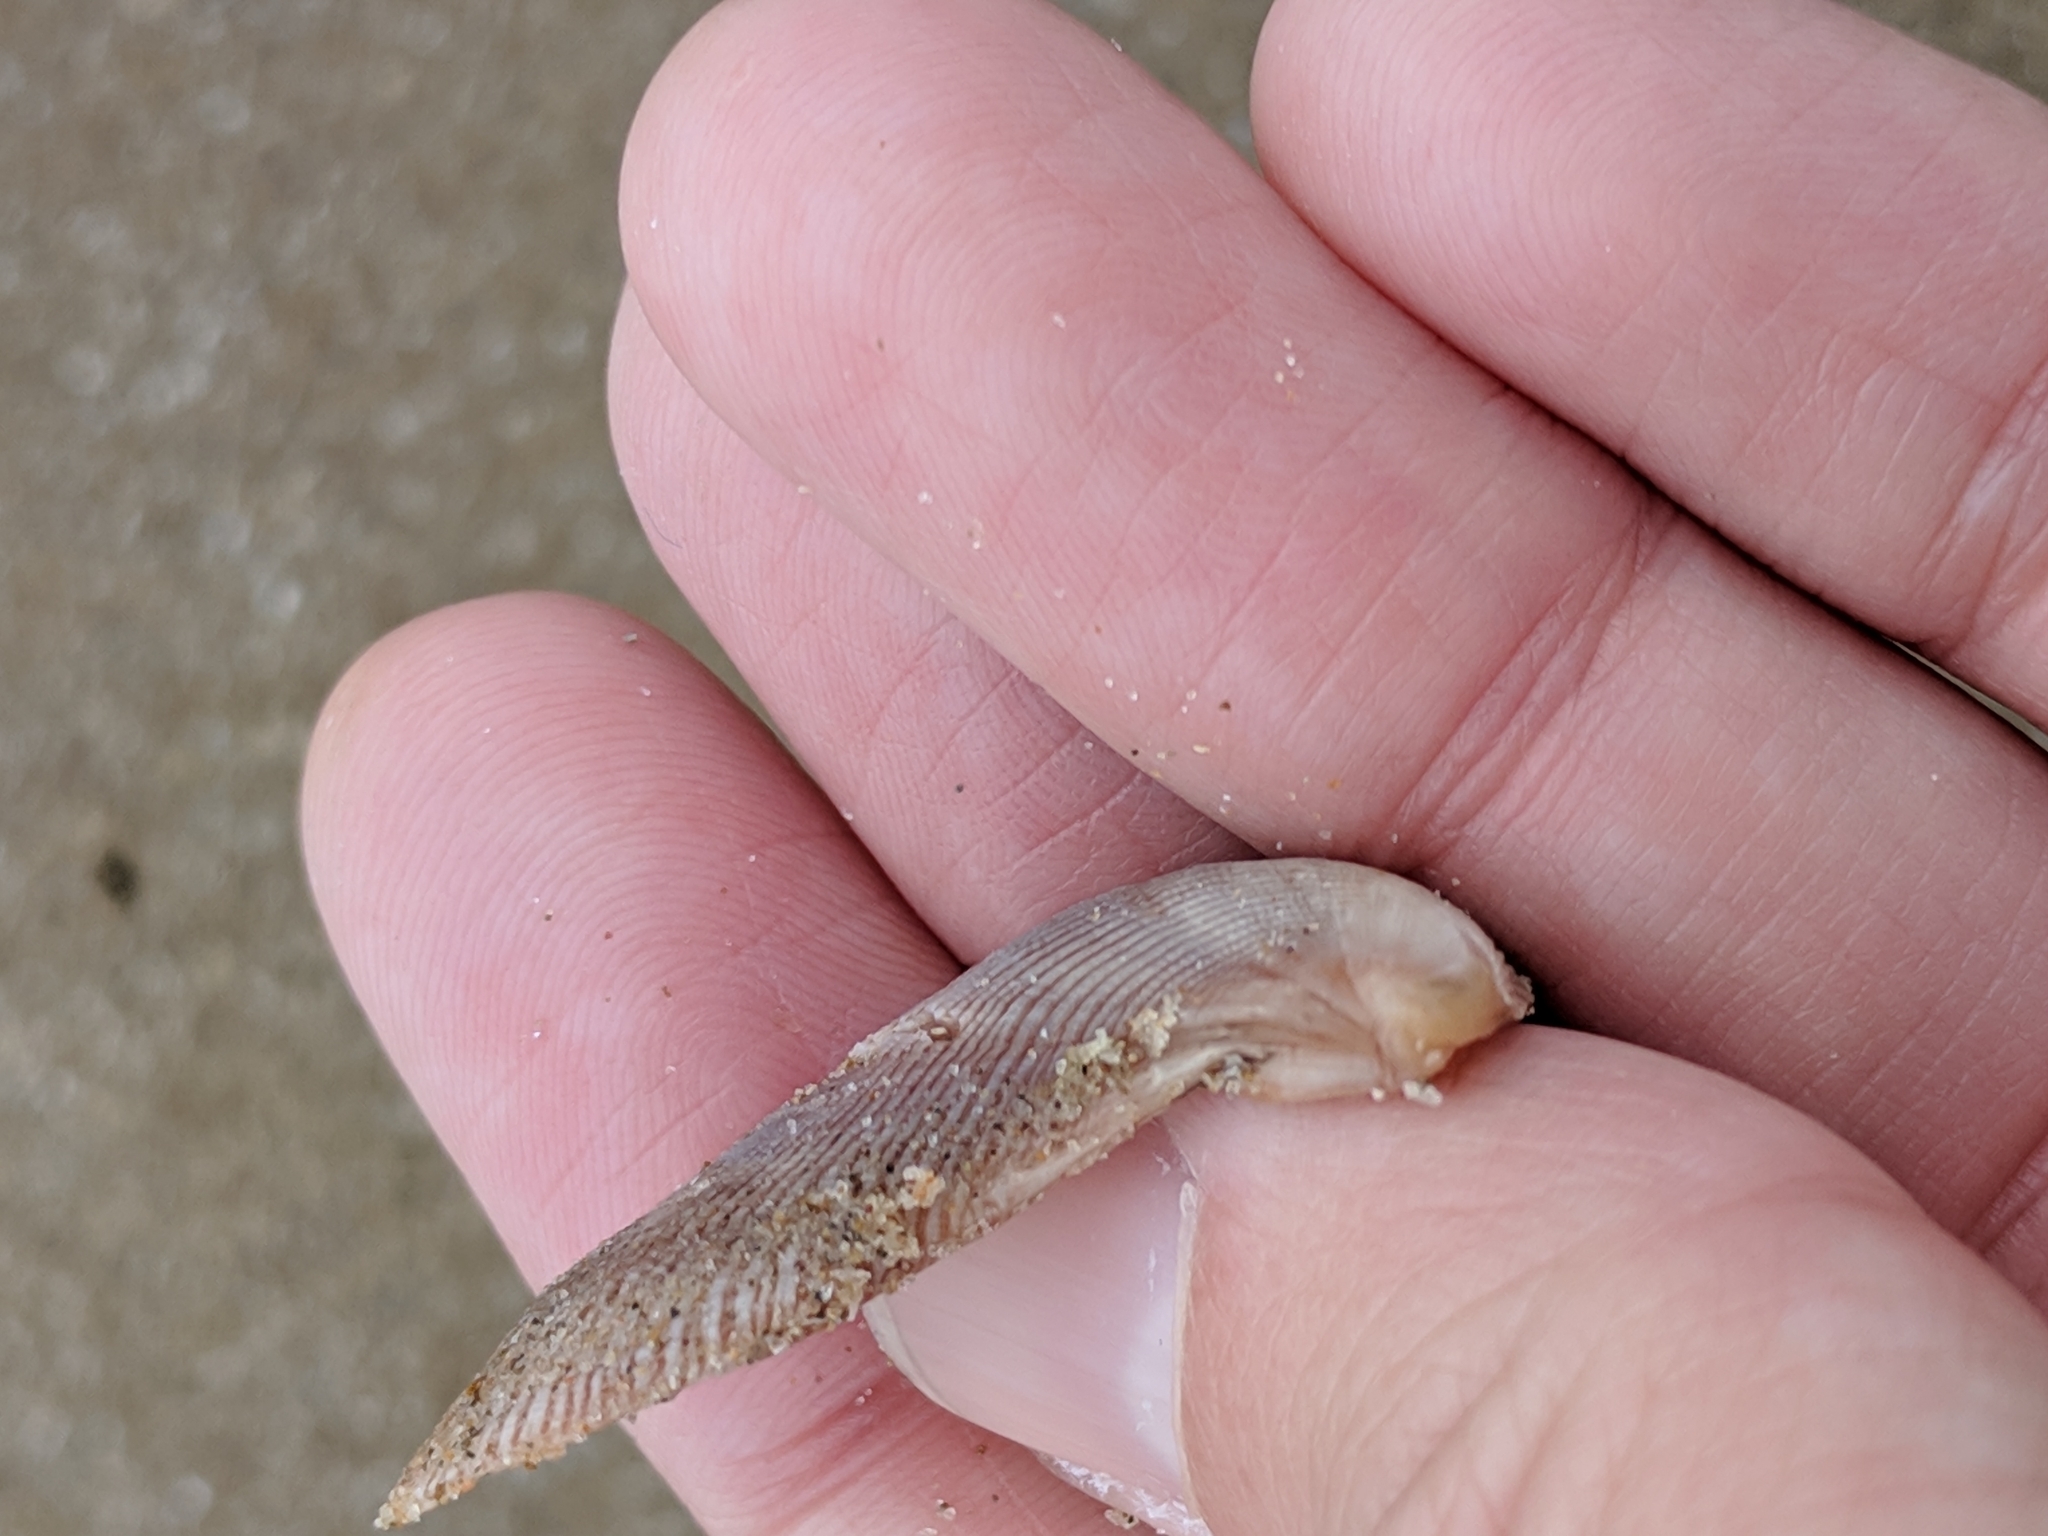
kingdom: Animalia
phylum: Mollusca
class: Bivalvia
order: Mytilida
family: Mytilidae
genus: Ischadium
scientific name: Ischadium recurvum
